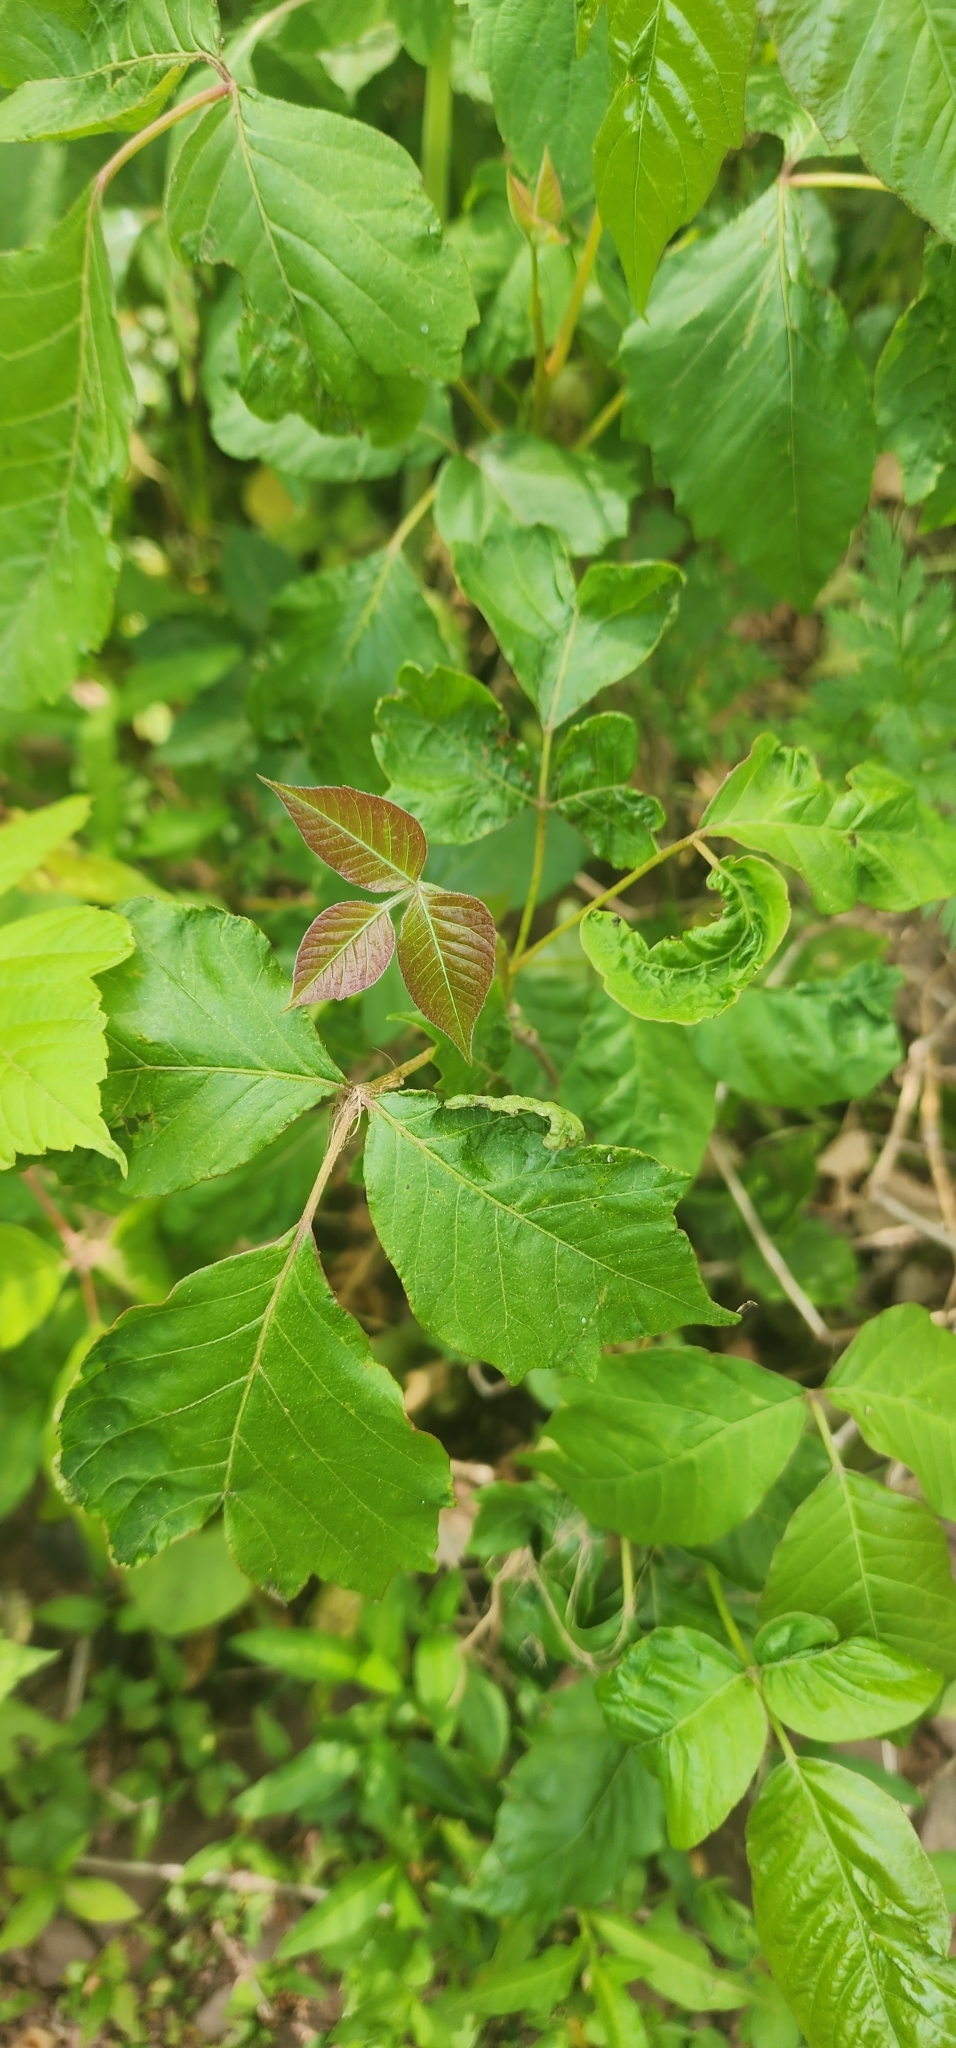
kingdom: Plantae
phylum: Tracheophyta
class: Magnoliopsida
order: Sapindales
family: Anacardiaceae
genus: Toxicodendron
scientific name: Toxicodendron radicans
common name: Poison ivy
